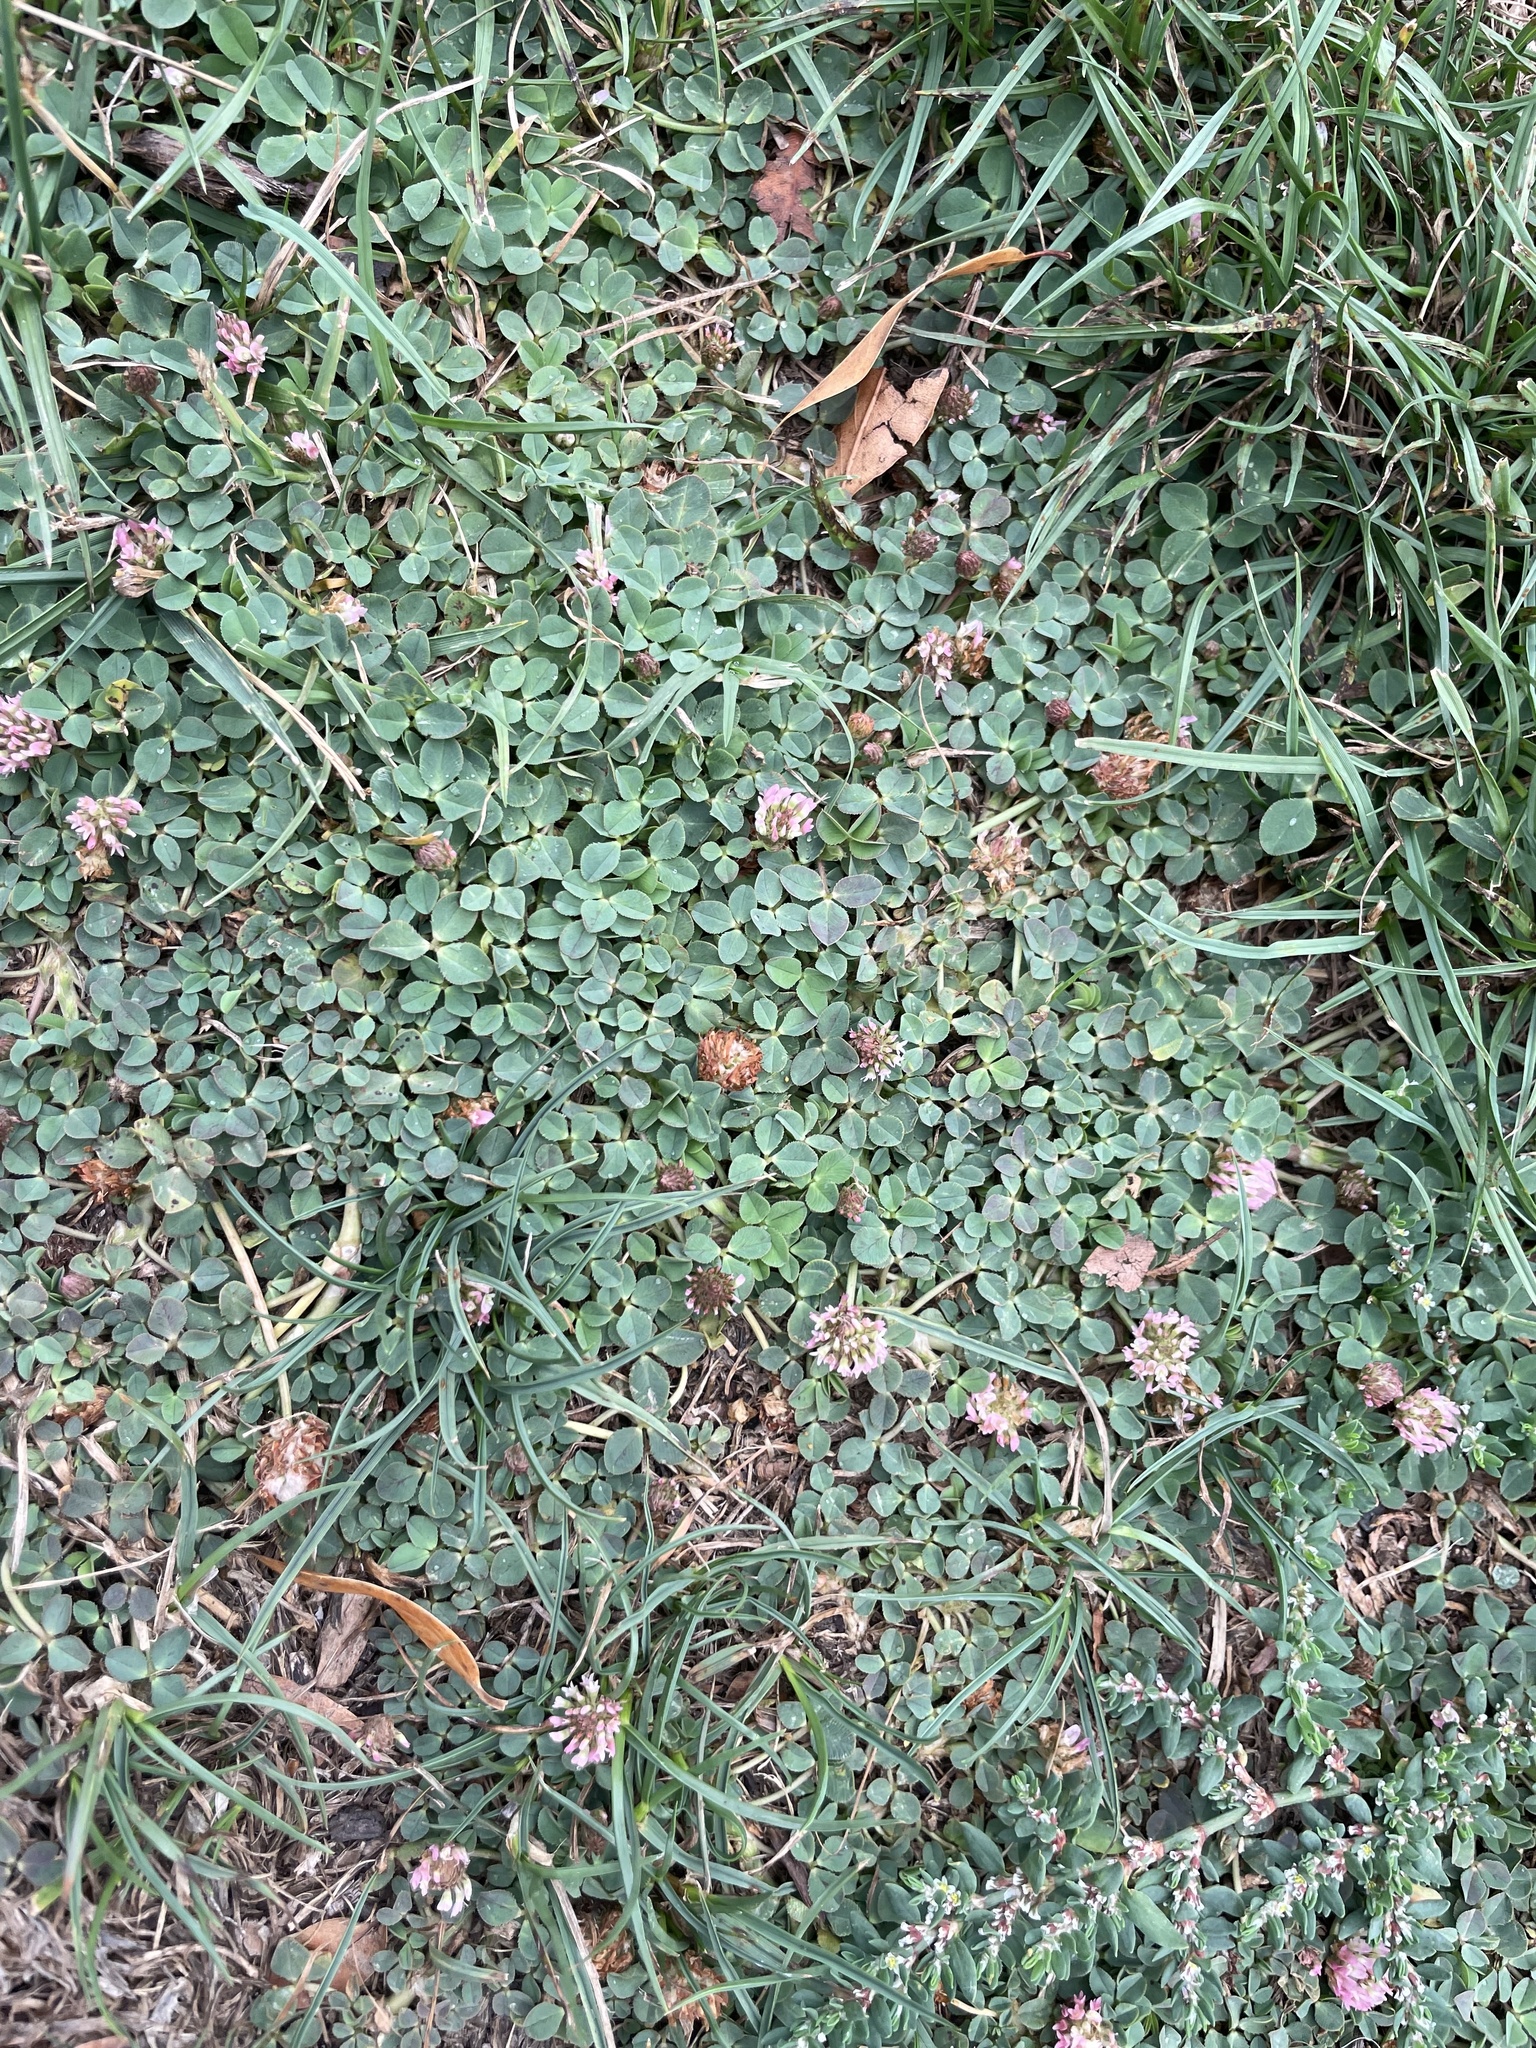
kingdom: Plantae
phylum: Tracheophyta
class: Magnoliopsida
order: Fabales
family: Fabaceae
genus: Trifolium
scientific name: Trifolium fragiferum
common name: Strawberry clover
